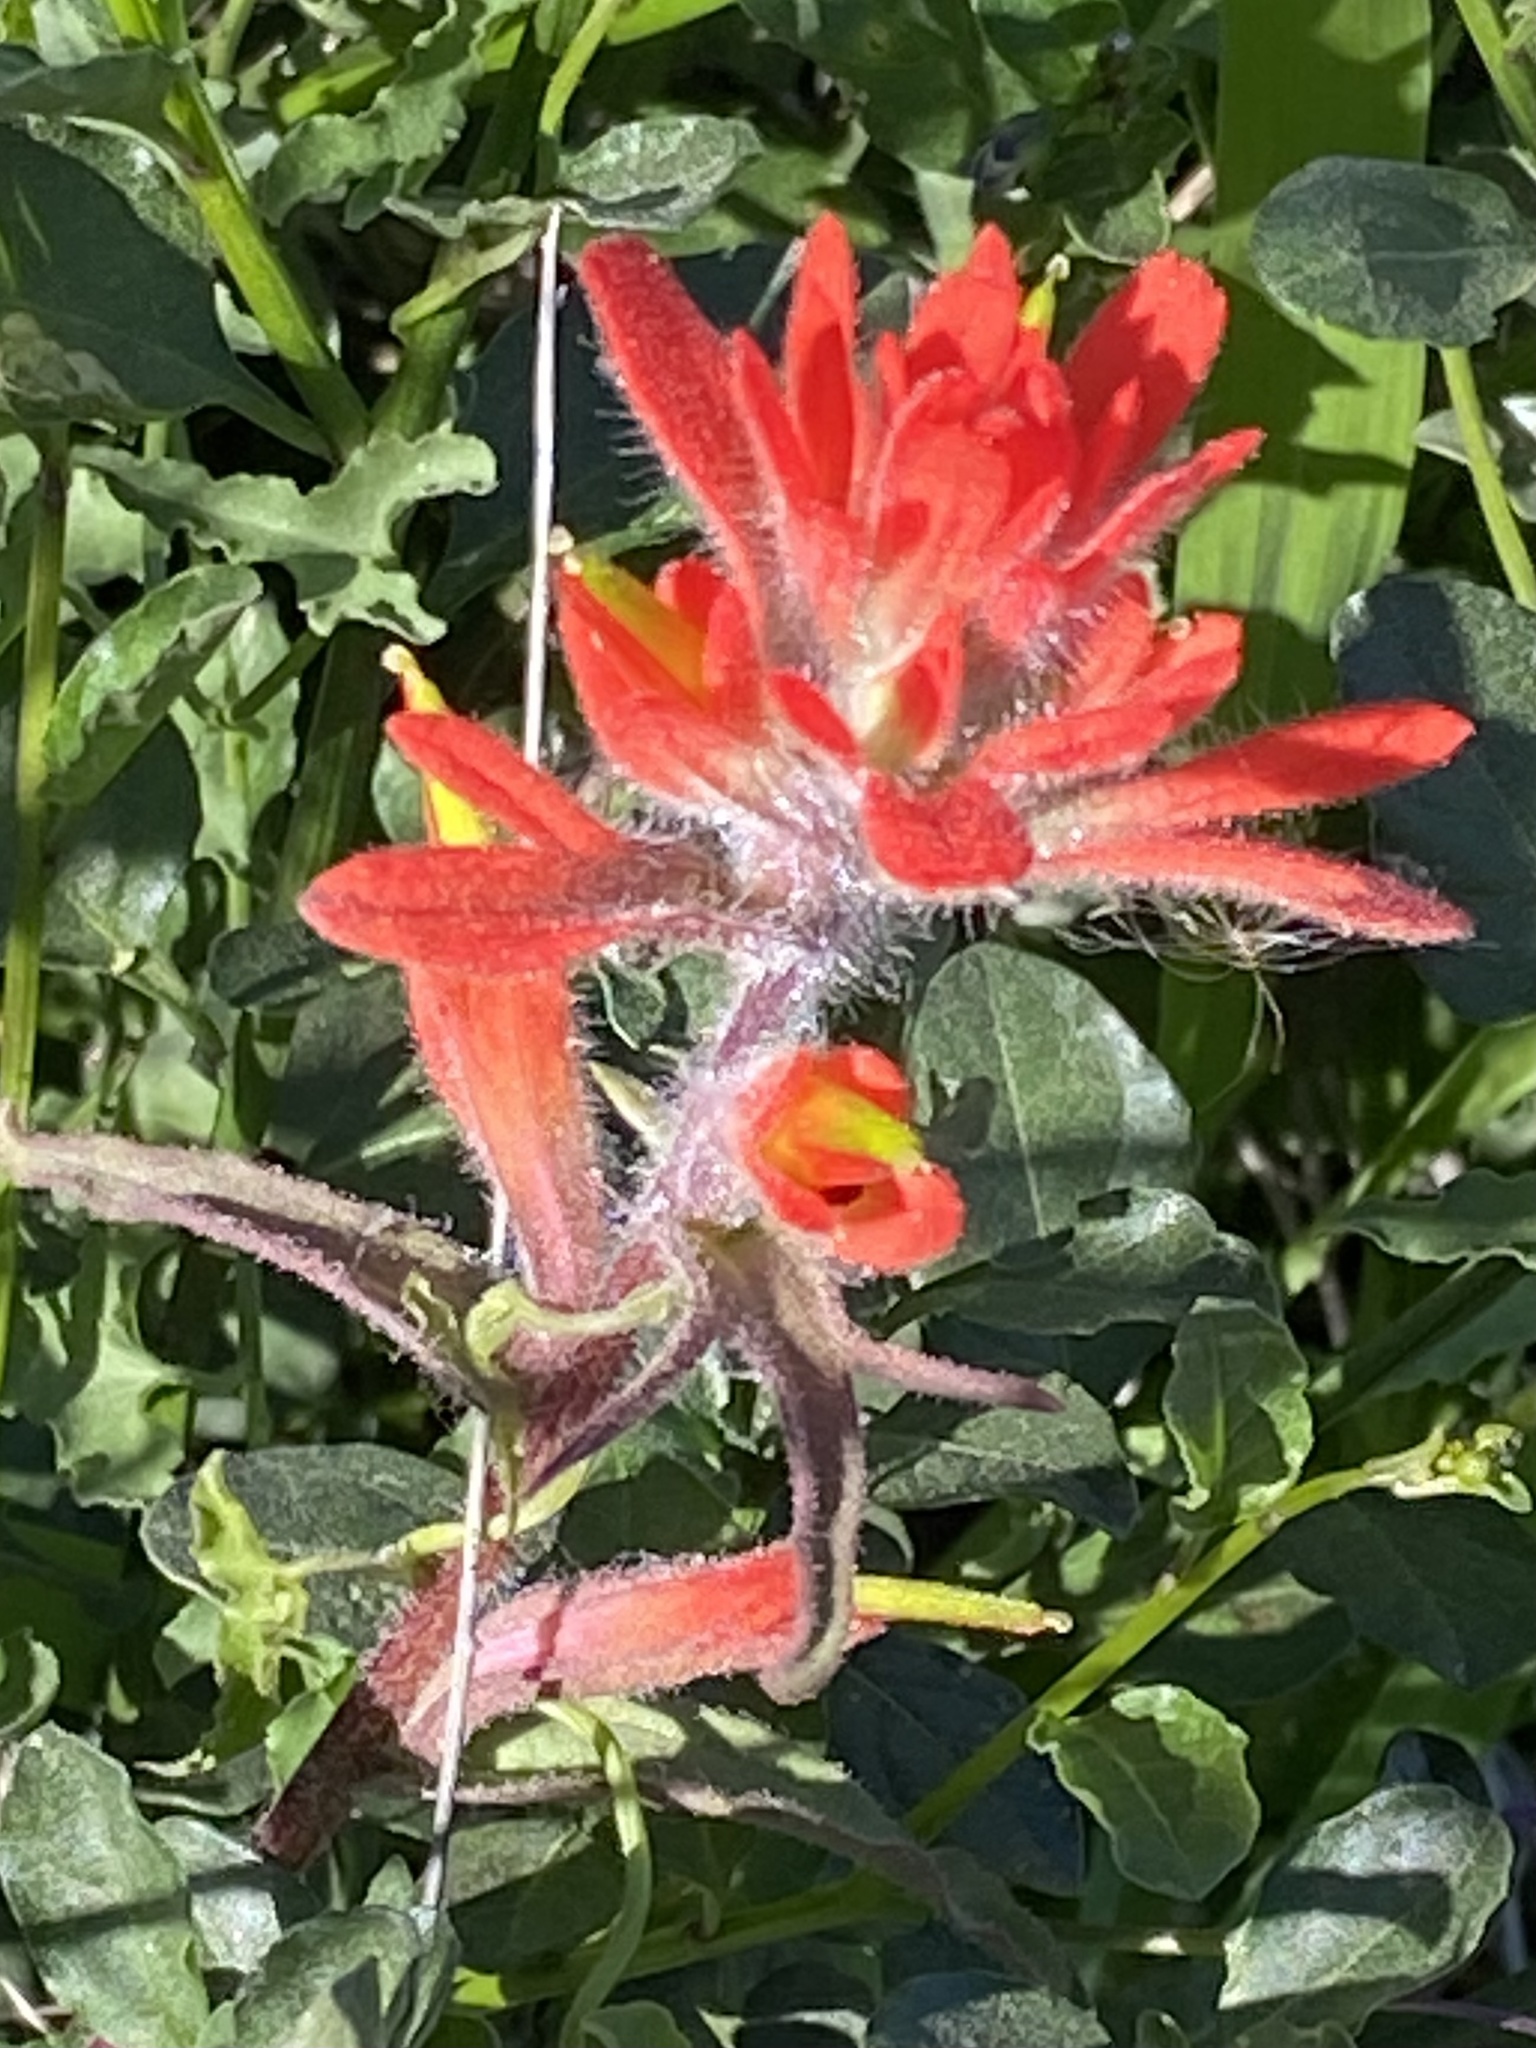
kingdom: Plantae
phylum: Tracheophyta
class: Magnoliopsida
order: Lamiales
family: Orobanchaceae
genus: Castilleja
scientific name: Castilleja affinis
